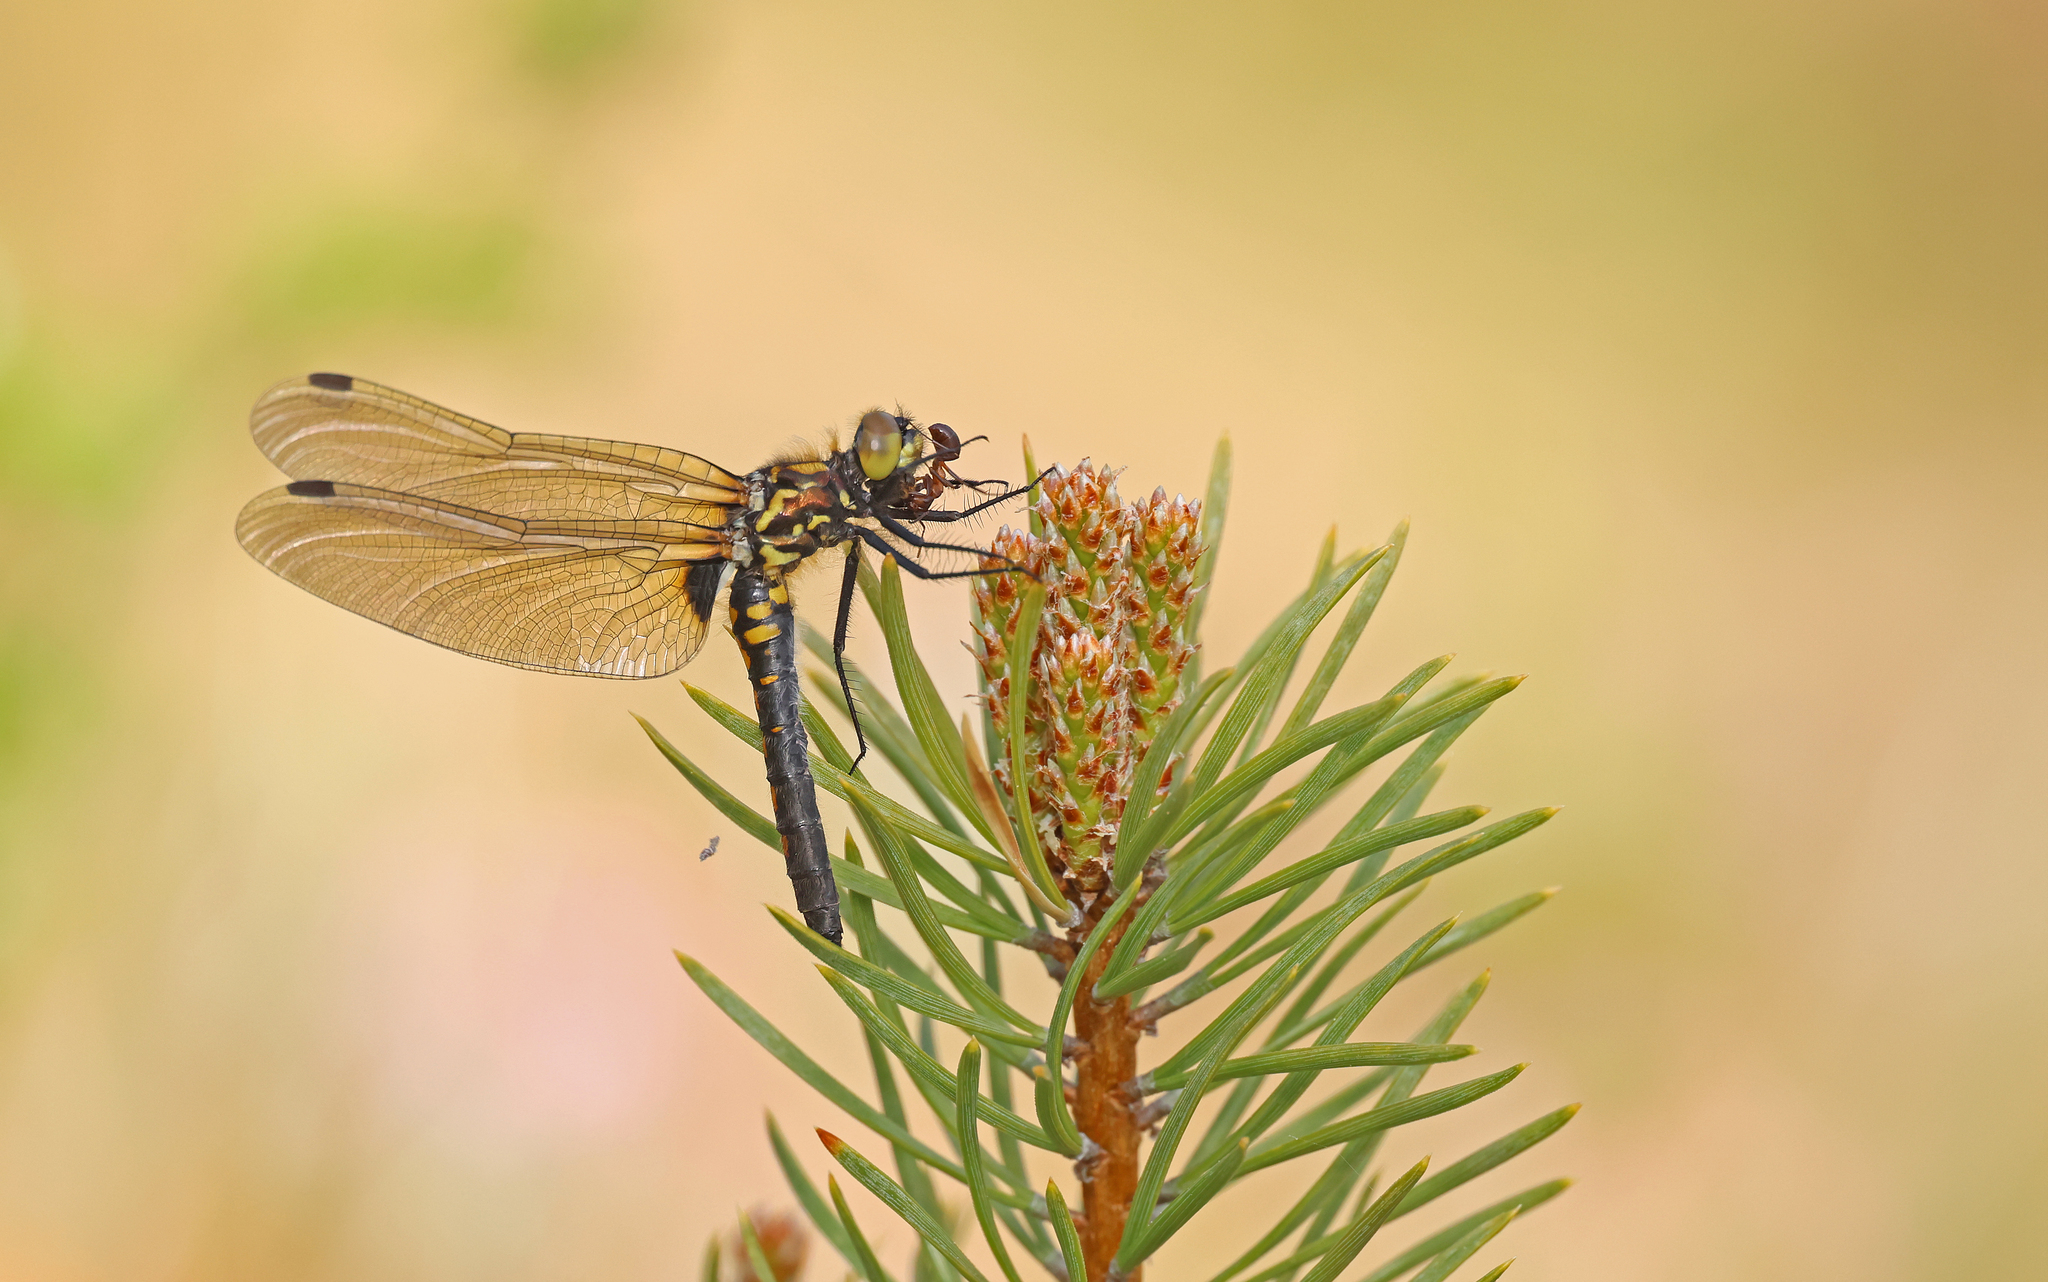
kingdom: Animalia
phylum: Arthropoda
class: Insecta
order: Odonata
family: Libellulidae
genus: Leucorrhinia
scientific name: Leucorrhinia dubia
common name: White-faced darter
